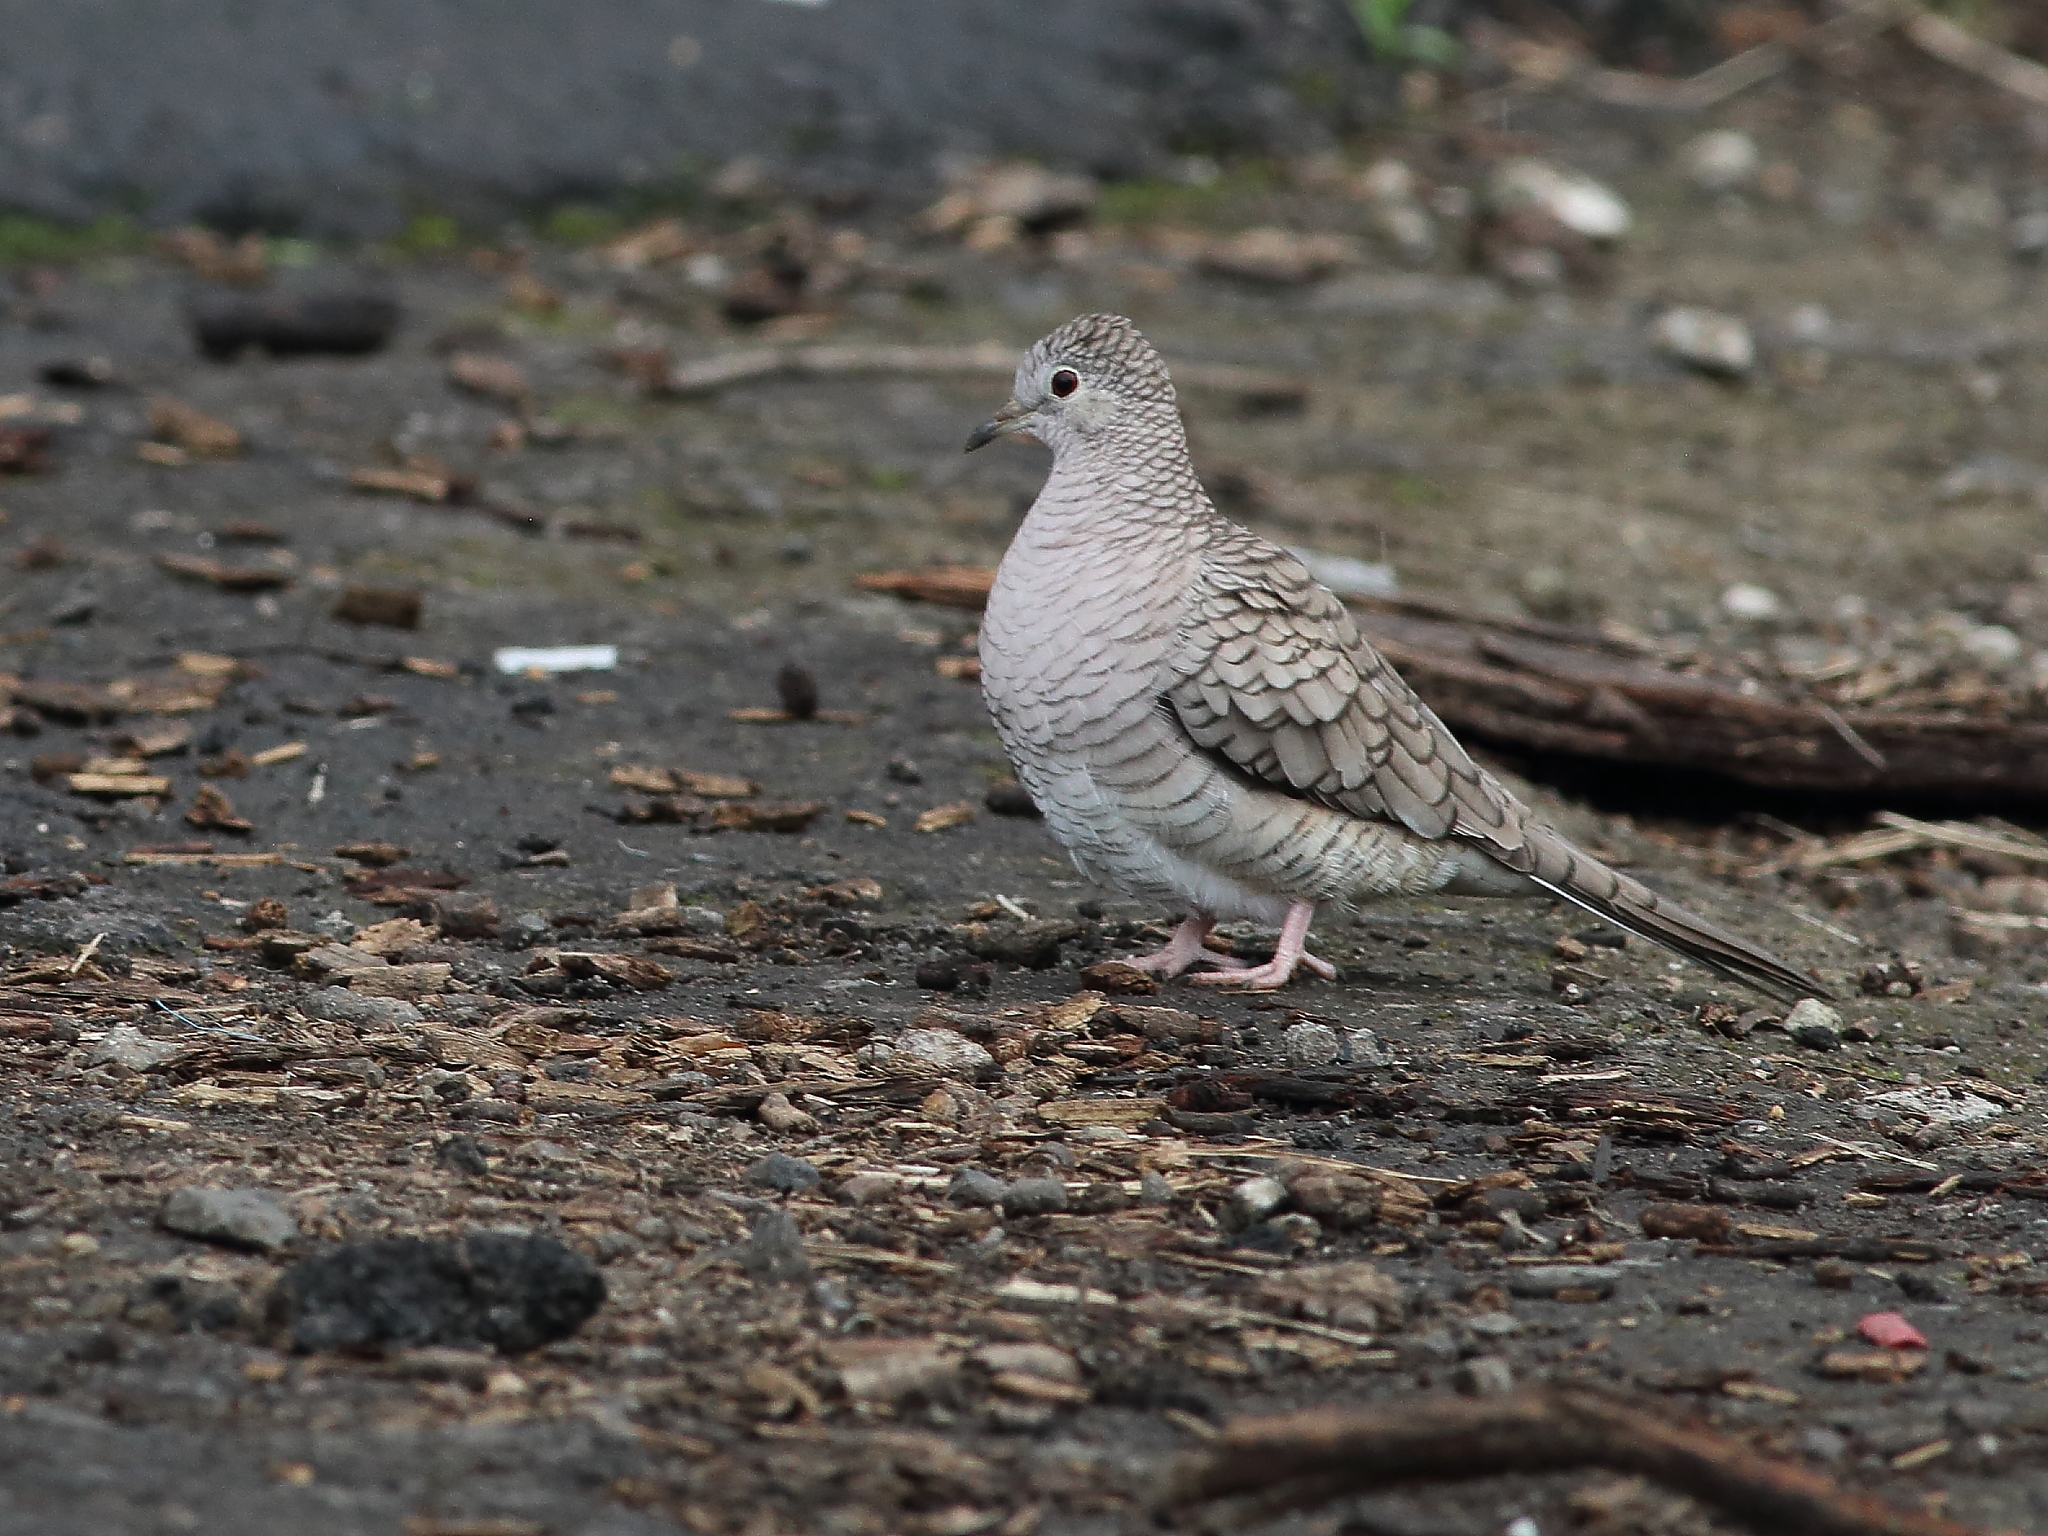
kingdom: Animalia
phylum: Chordata
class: Aves
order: Columbiformes
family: Columbidae
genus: Columbina
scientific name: Columbina inca
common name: Inca dove
